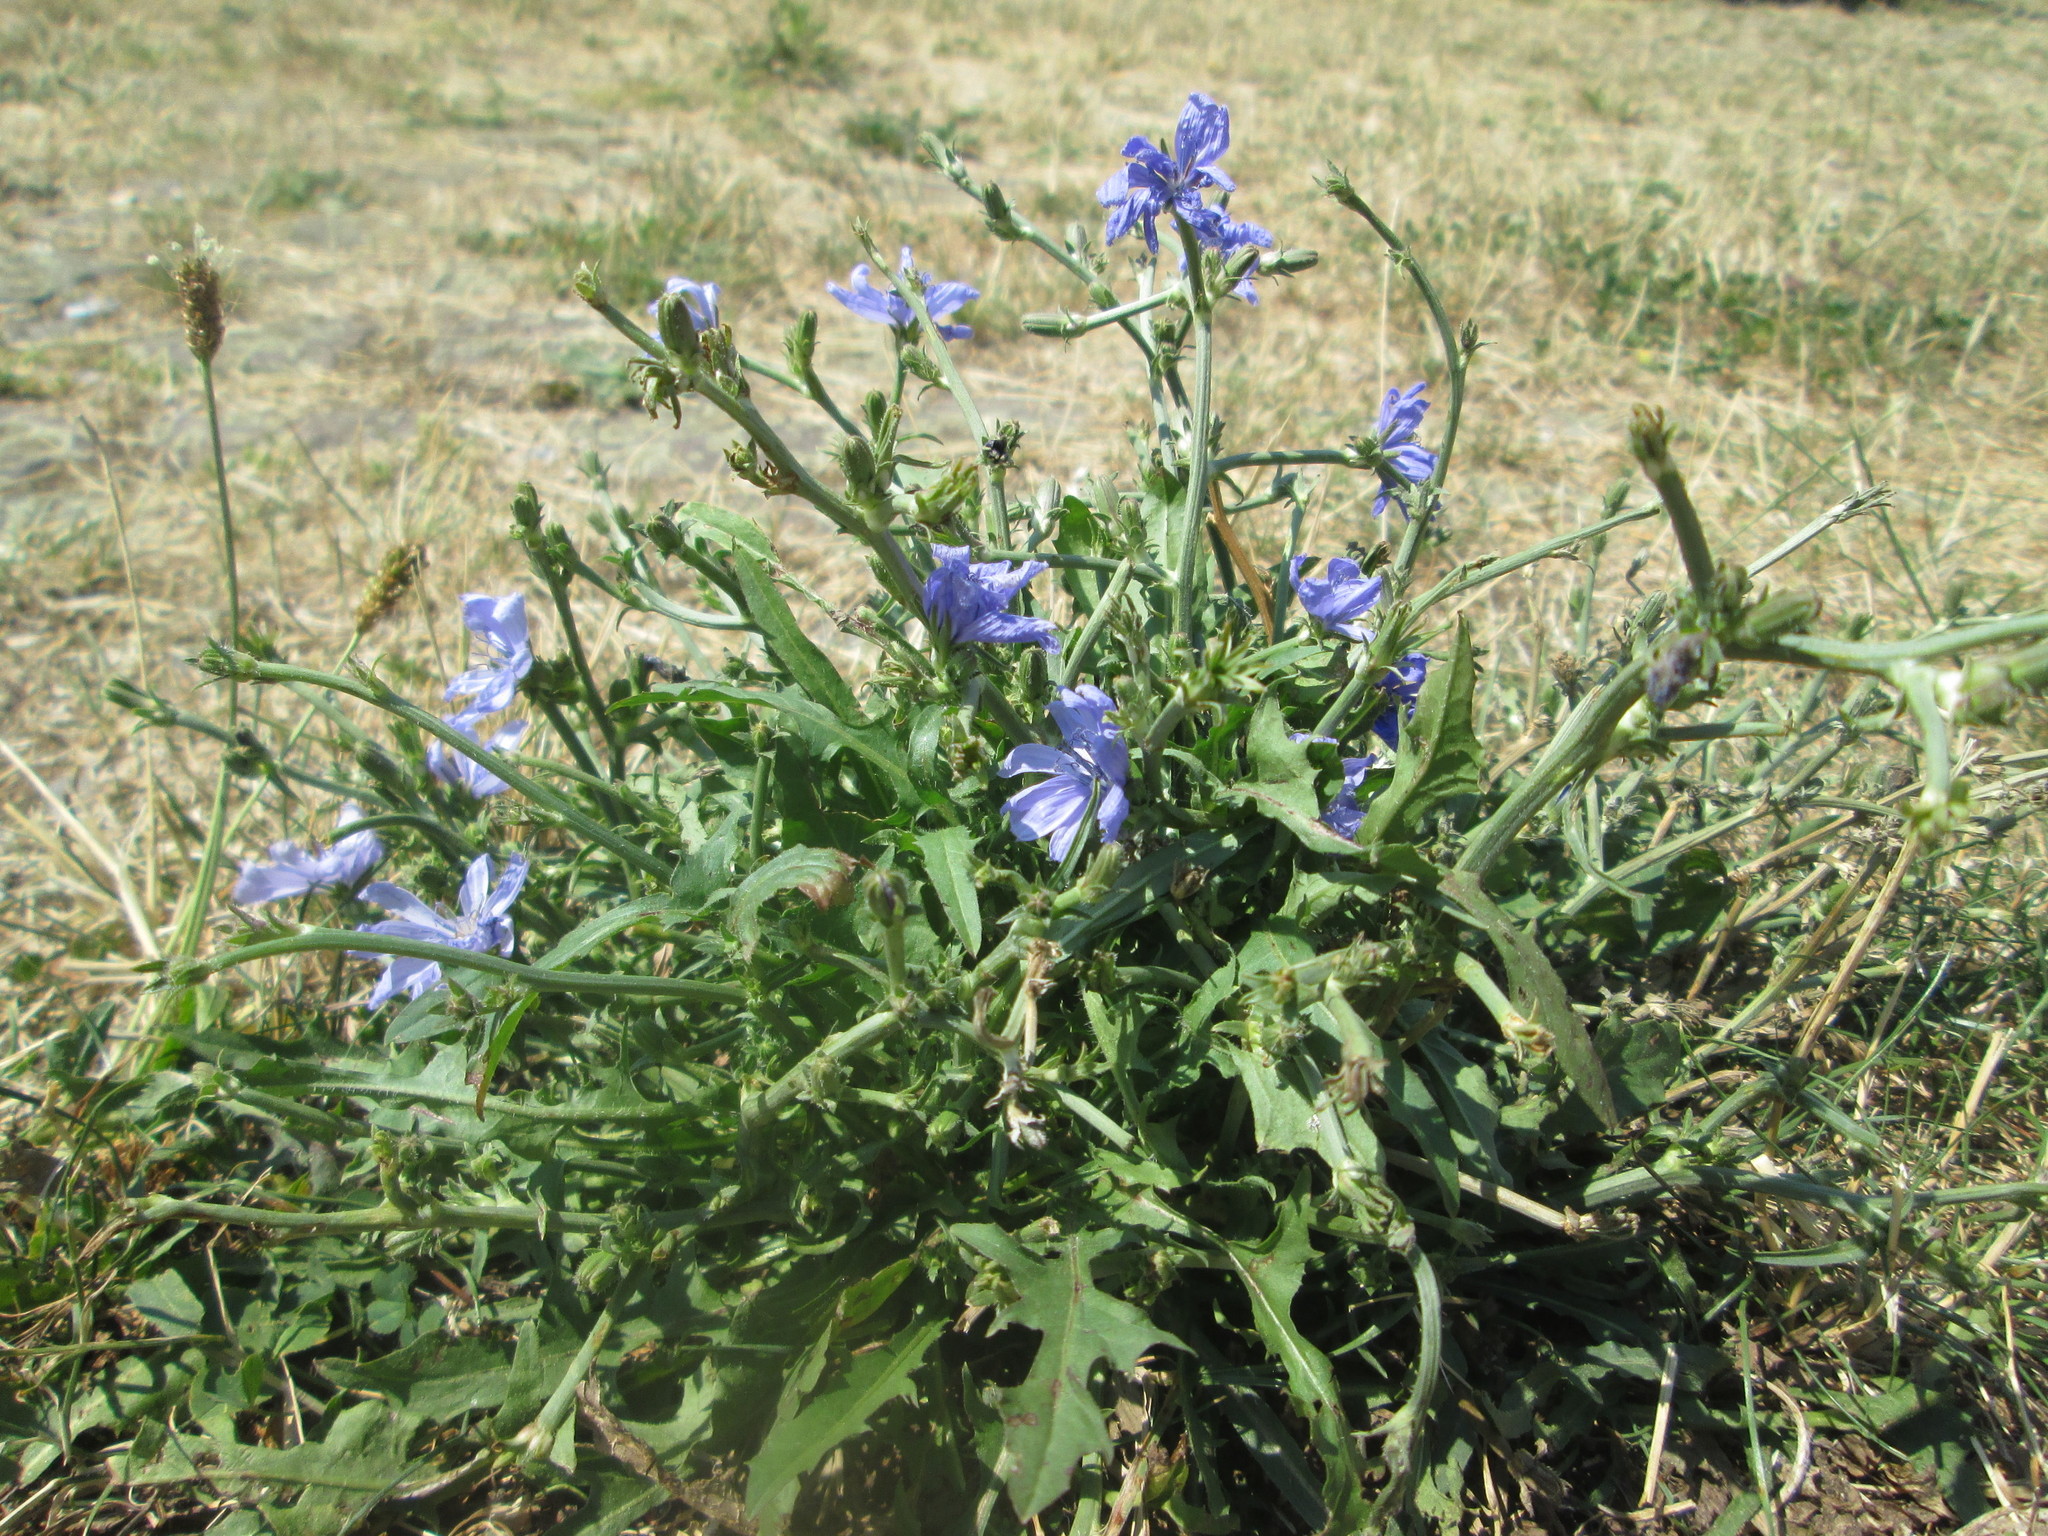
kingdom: Plantae
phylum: Tracheophyta
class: Magnoliopsida
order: Asterales
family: Asteraceae
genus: Cichorium
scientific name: Cichorium intybus
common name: Chicory
